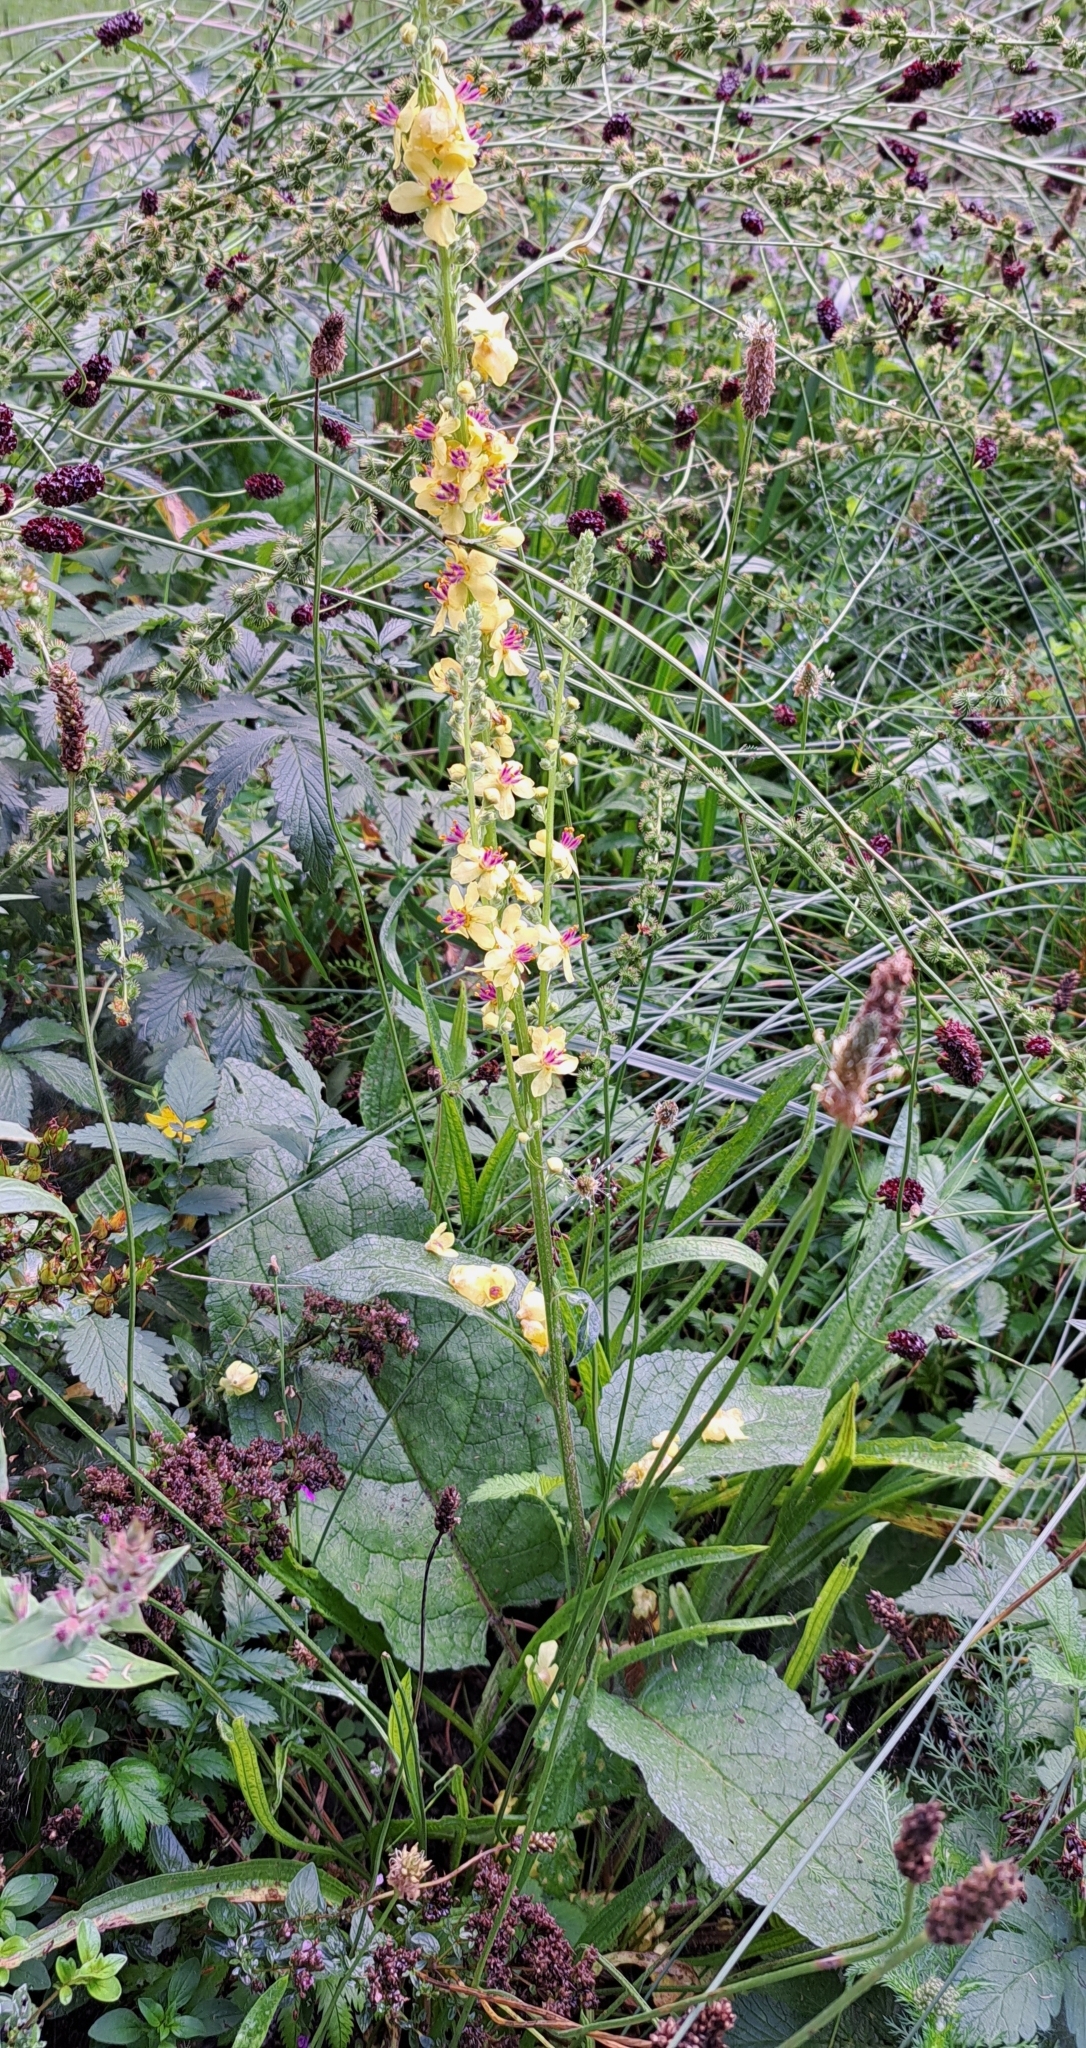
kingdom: Plantae
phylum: Tracheophyta
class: Magnoliopsida
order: Lamiales
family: Scrophulariaceae
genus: Verbascum
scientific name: Verbascum nigrum
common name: Dark mullein
